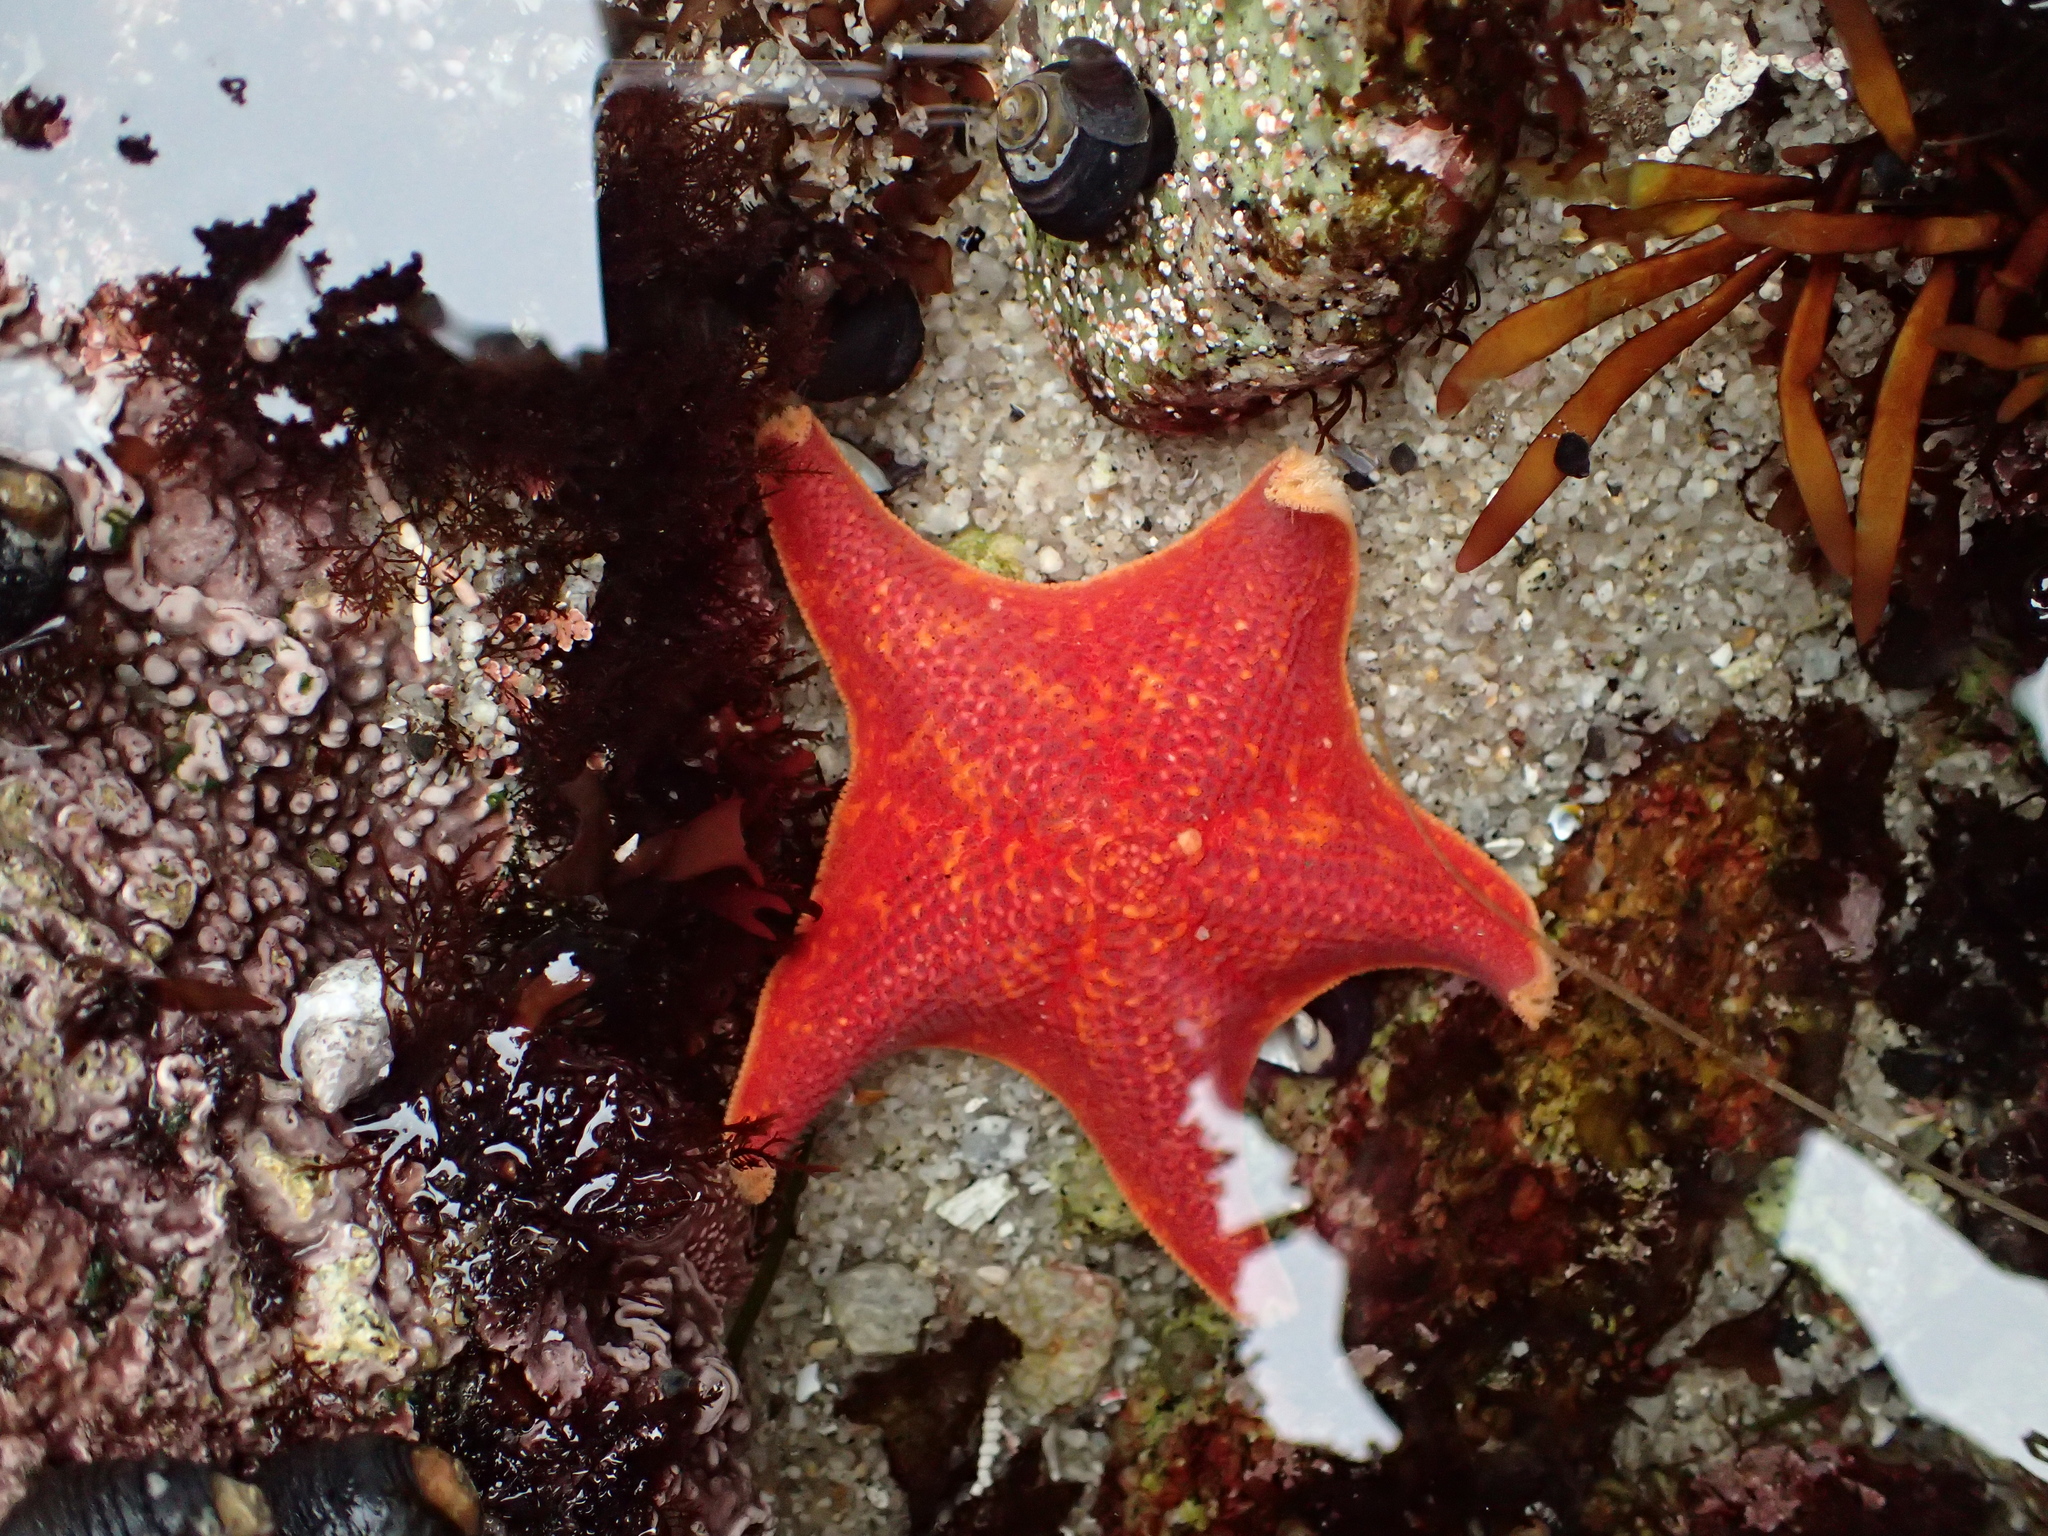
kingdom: Animalia
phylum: Echinodermata
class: Asteroidea
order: Valvatida
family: Asterinidae
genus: Patiria
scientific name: Patiria miniata
